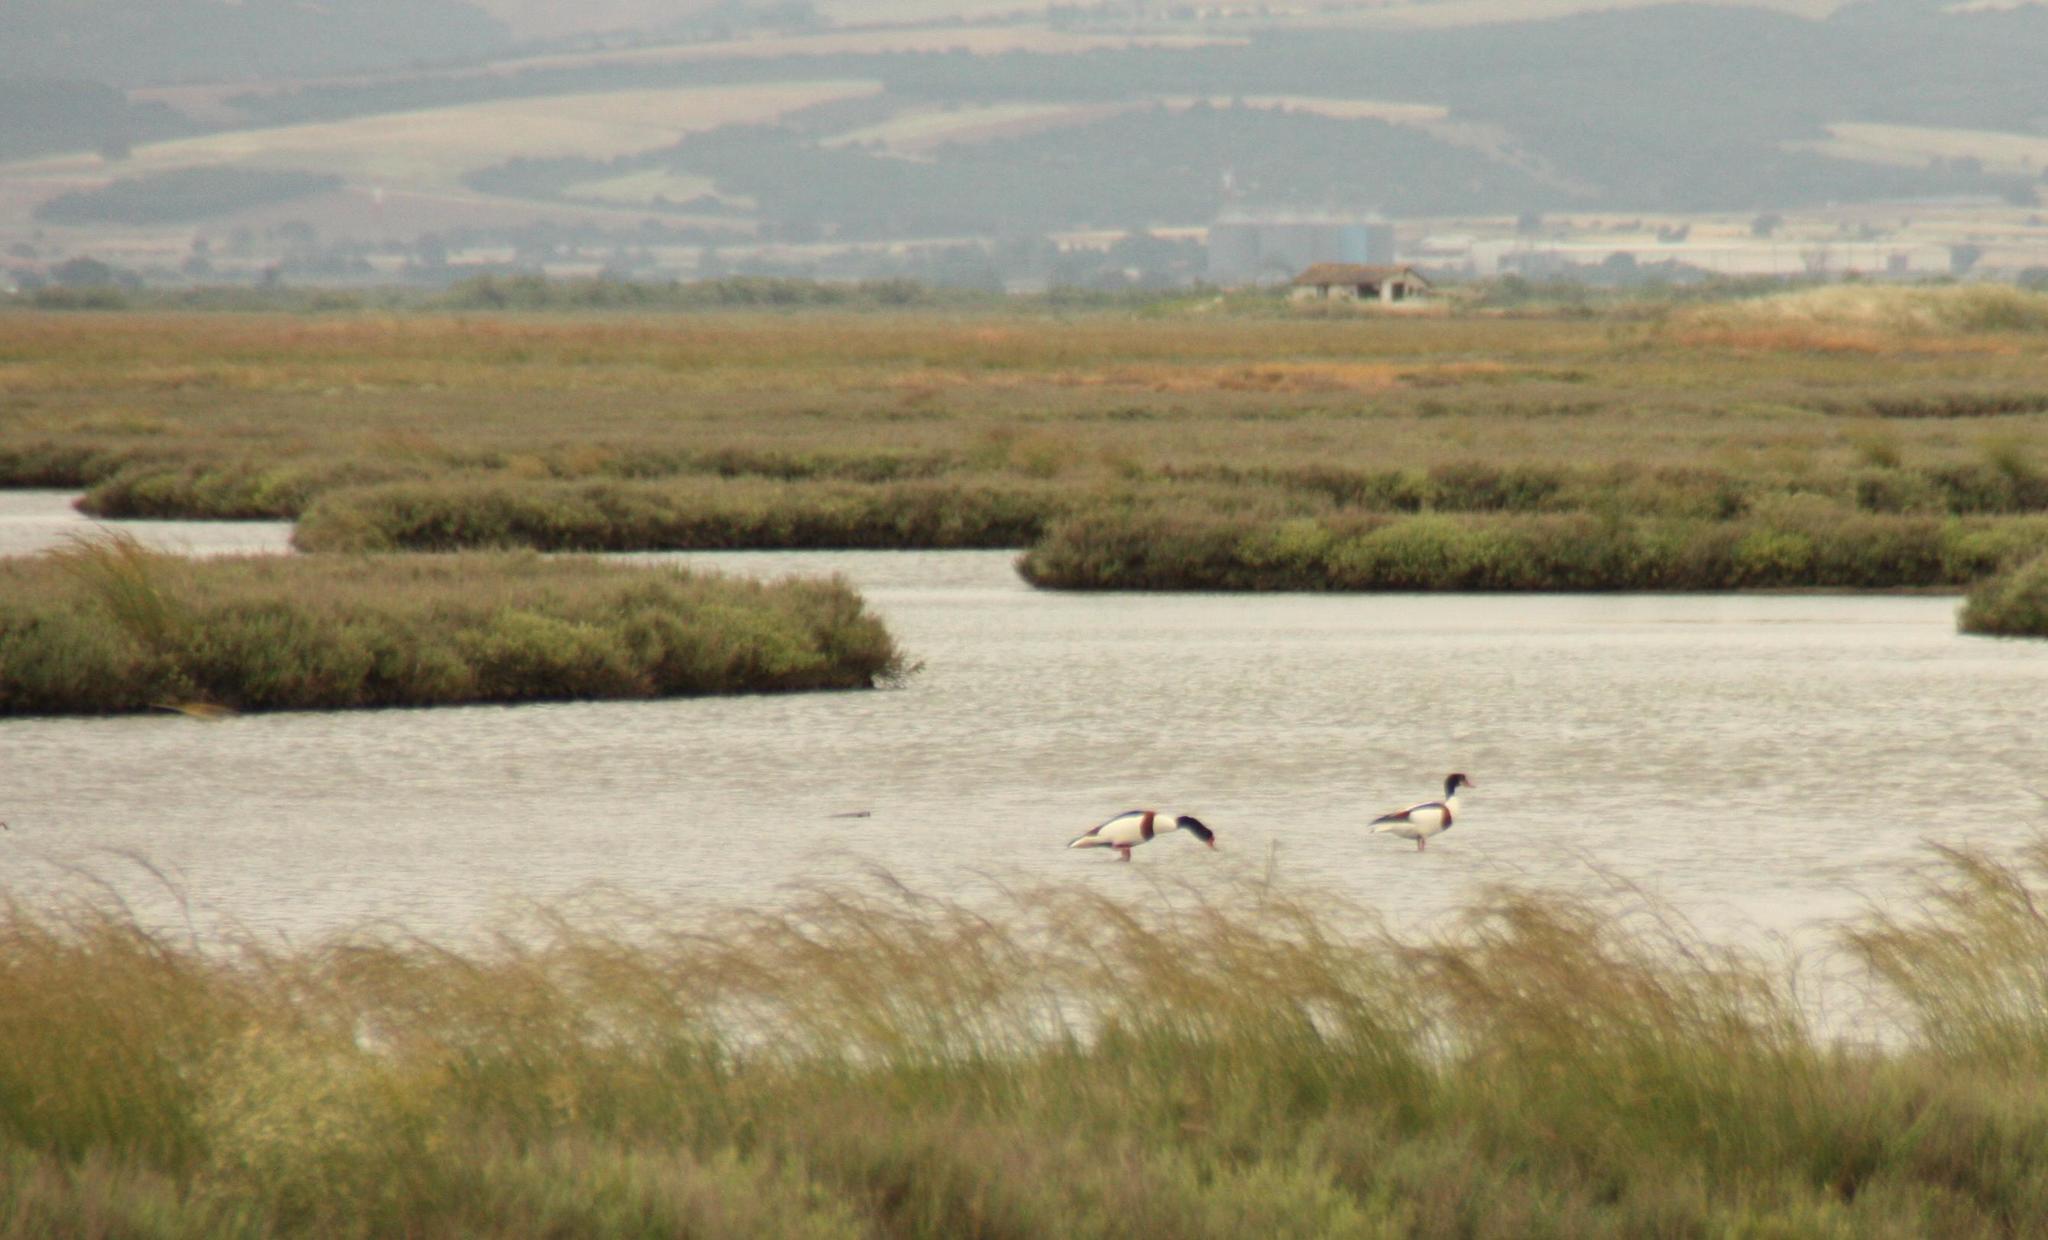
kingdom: Animalia
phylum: Chordata
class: Aves
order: Anseriformes
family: Anatidae
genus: Tadorna
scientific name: Tadorna tadorna
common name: Common shelduck
